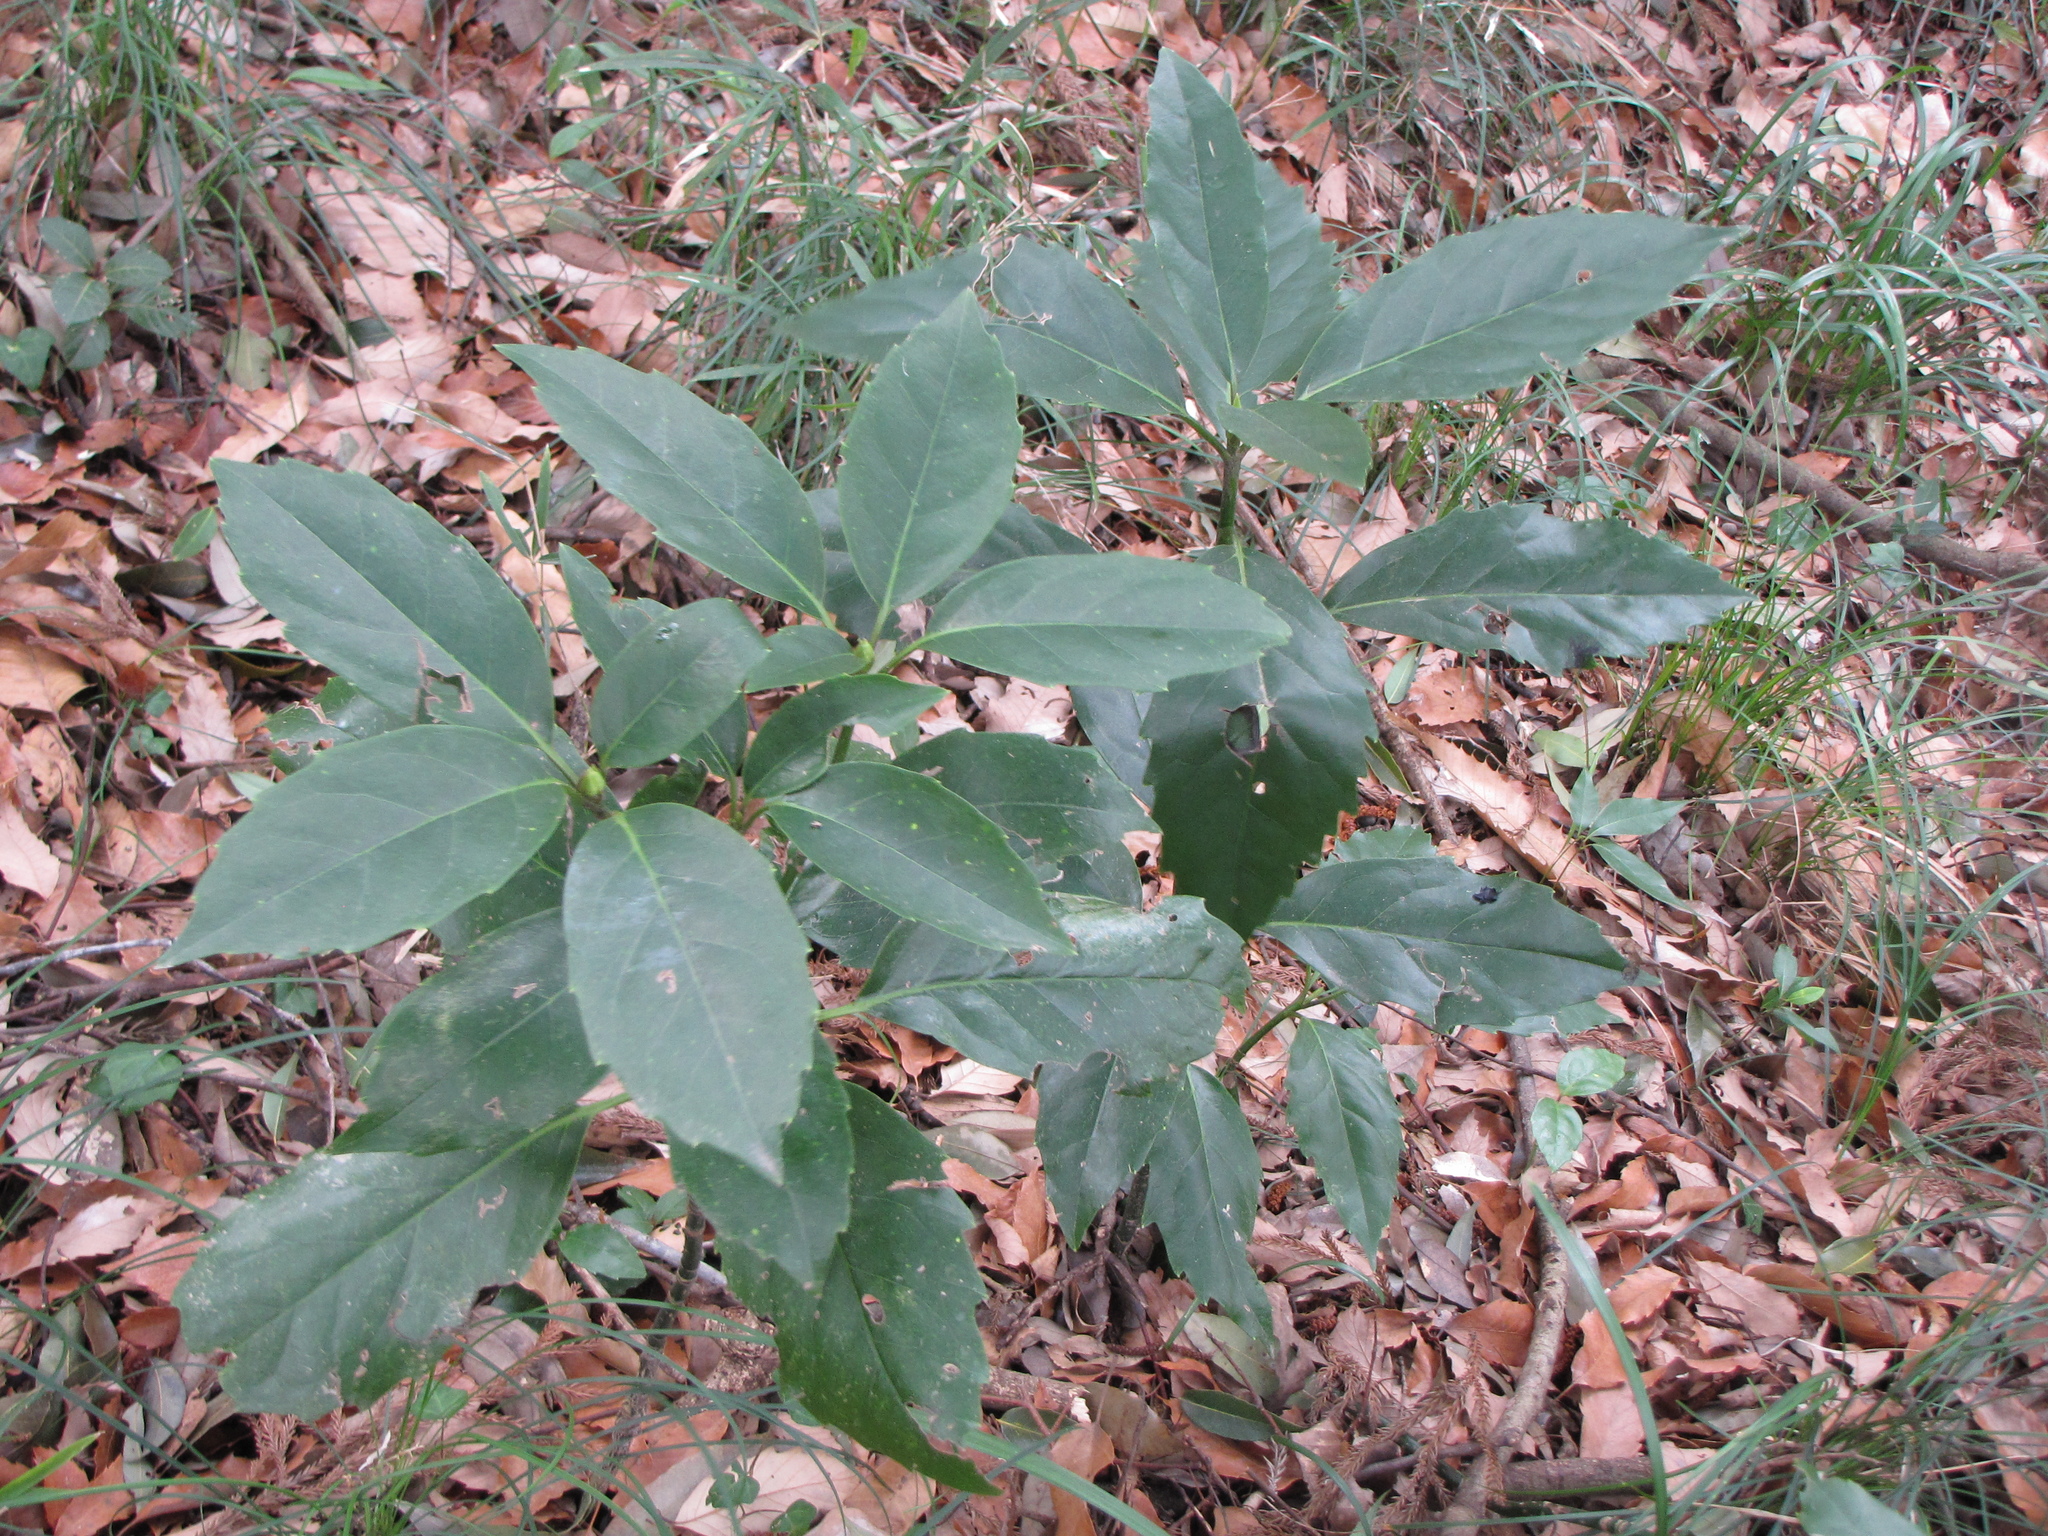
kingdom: Plantae
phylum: Tracheophyta
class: Magnoliopsida
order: Garryales
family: Garryaceae
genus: Aucuba
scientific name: Aucuba japonica
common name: Spotted-laurel
